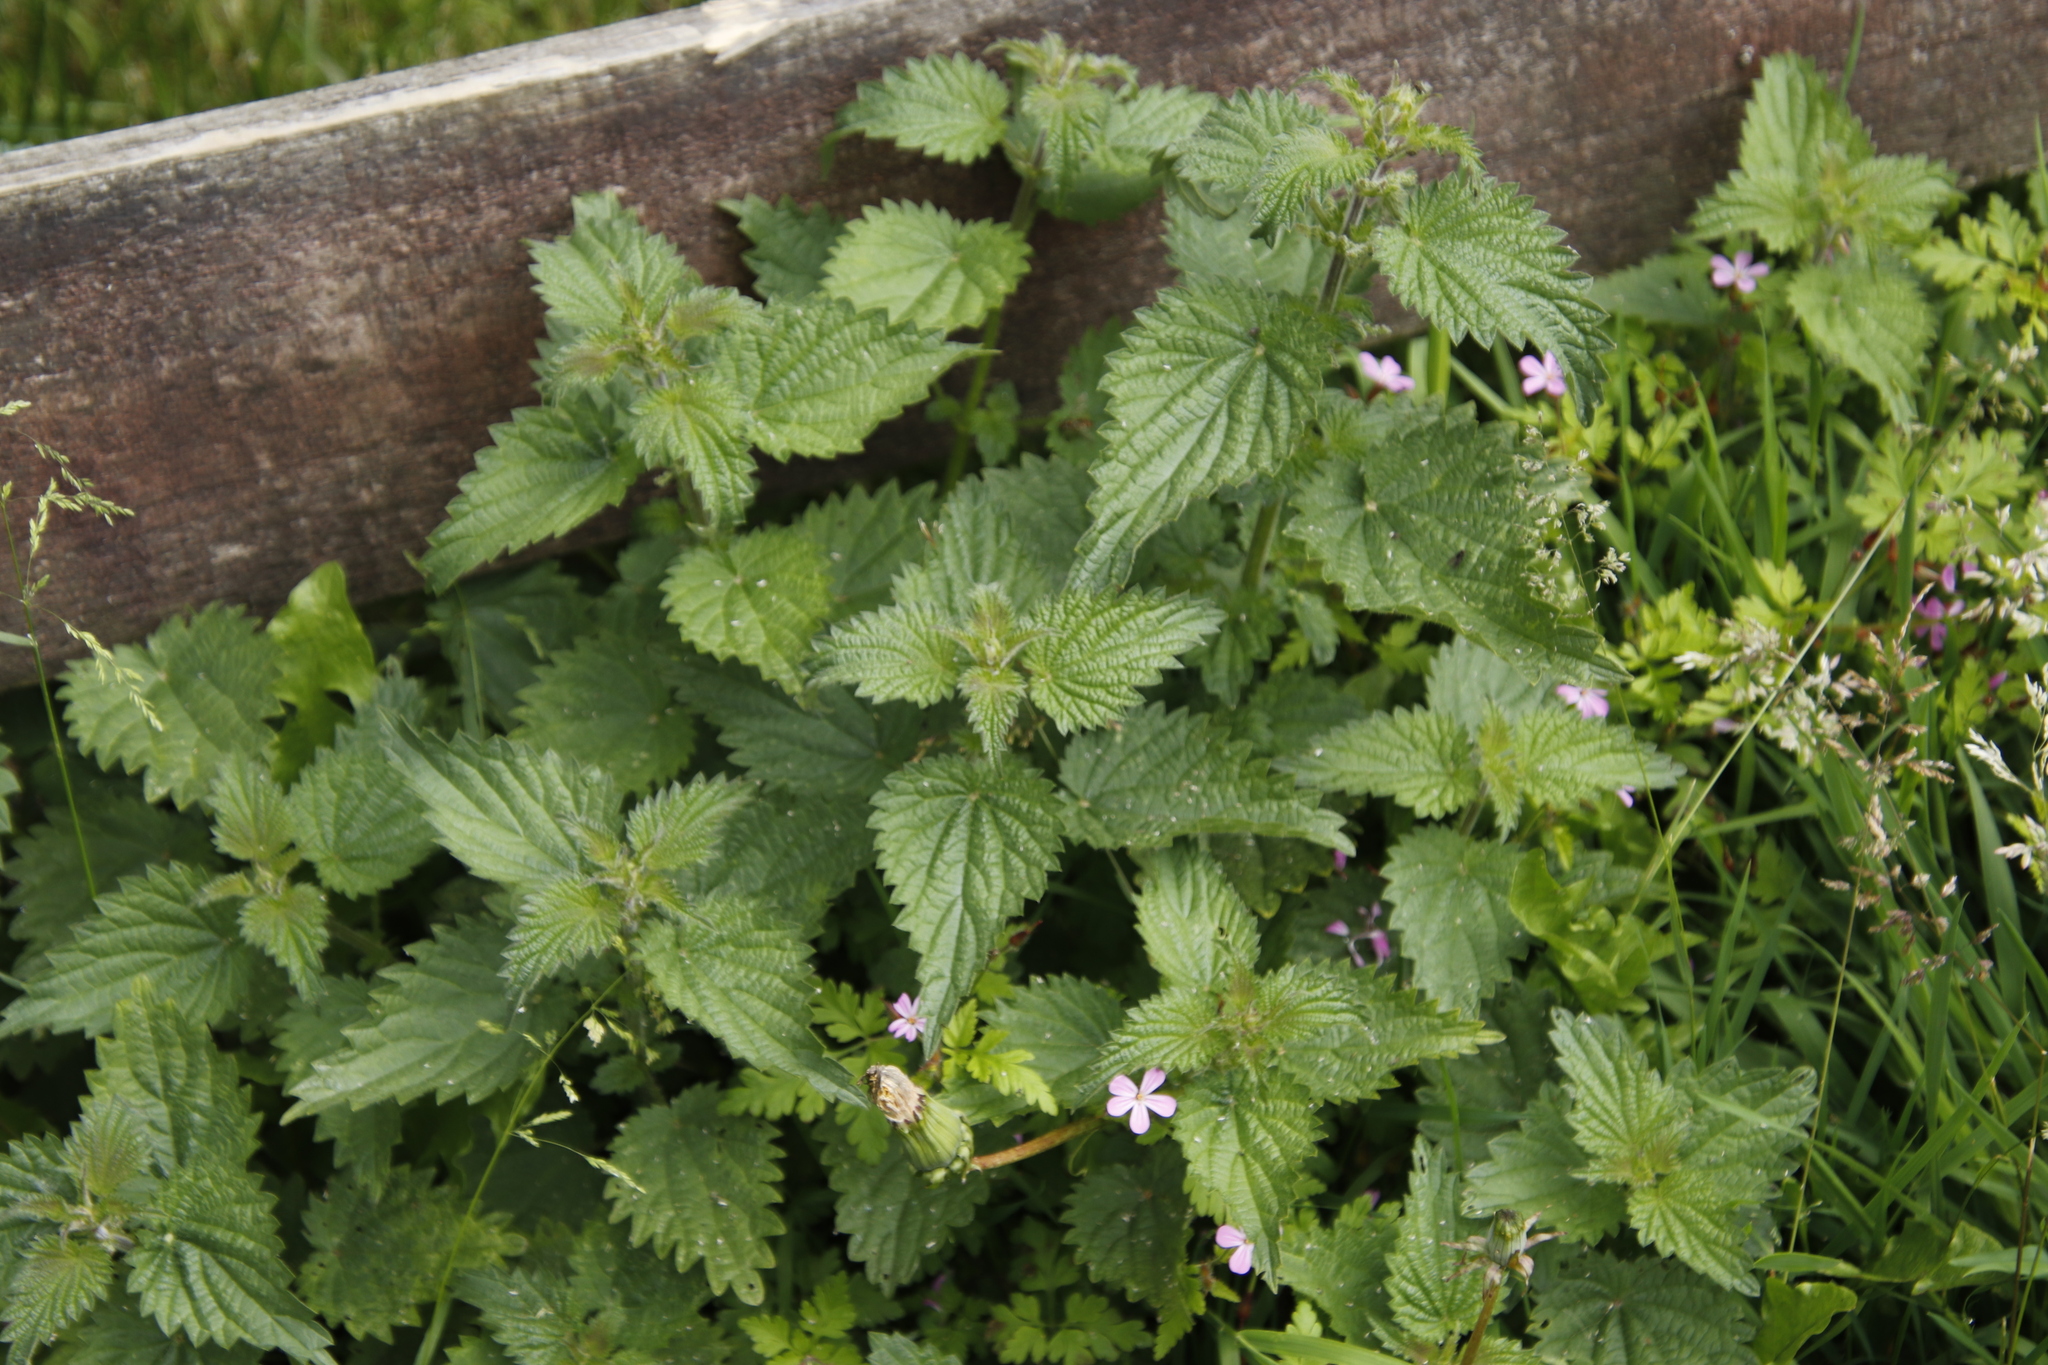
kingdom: Plantae
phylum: Tracheophyta
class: Magnoliopsida
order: Rosales
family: Urticaceae
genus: Urtica
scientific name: Urtica dioica
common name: Common nettle
